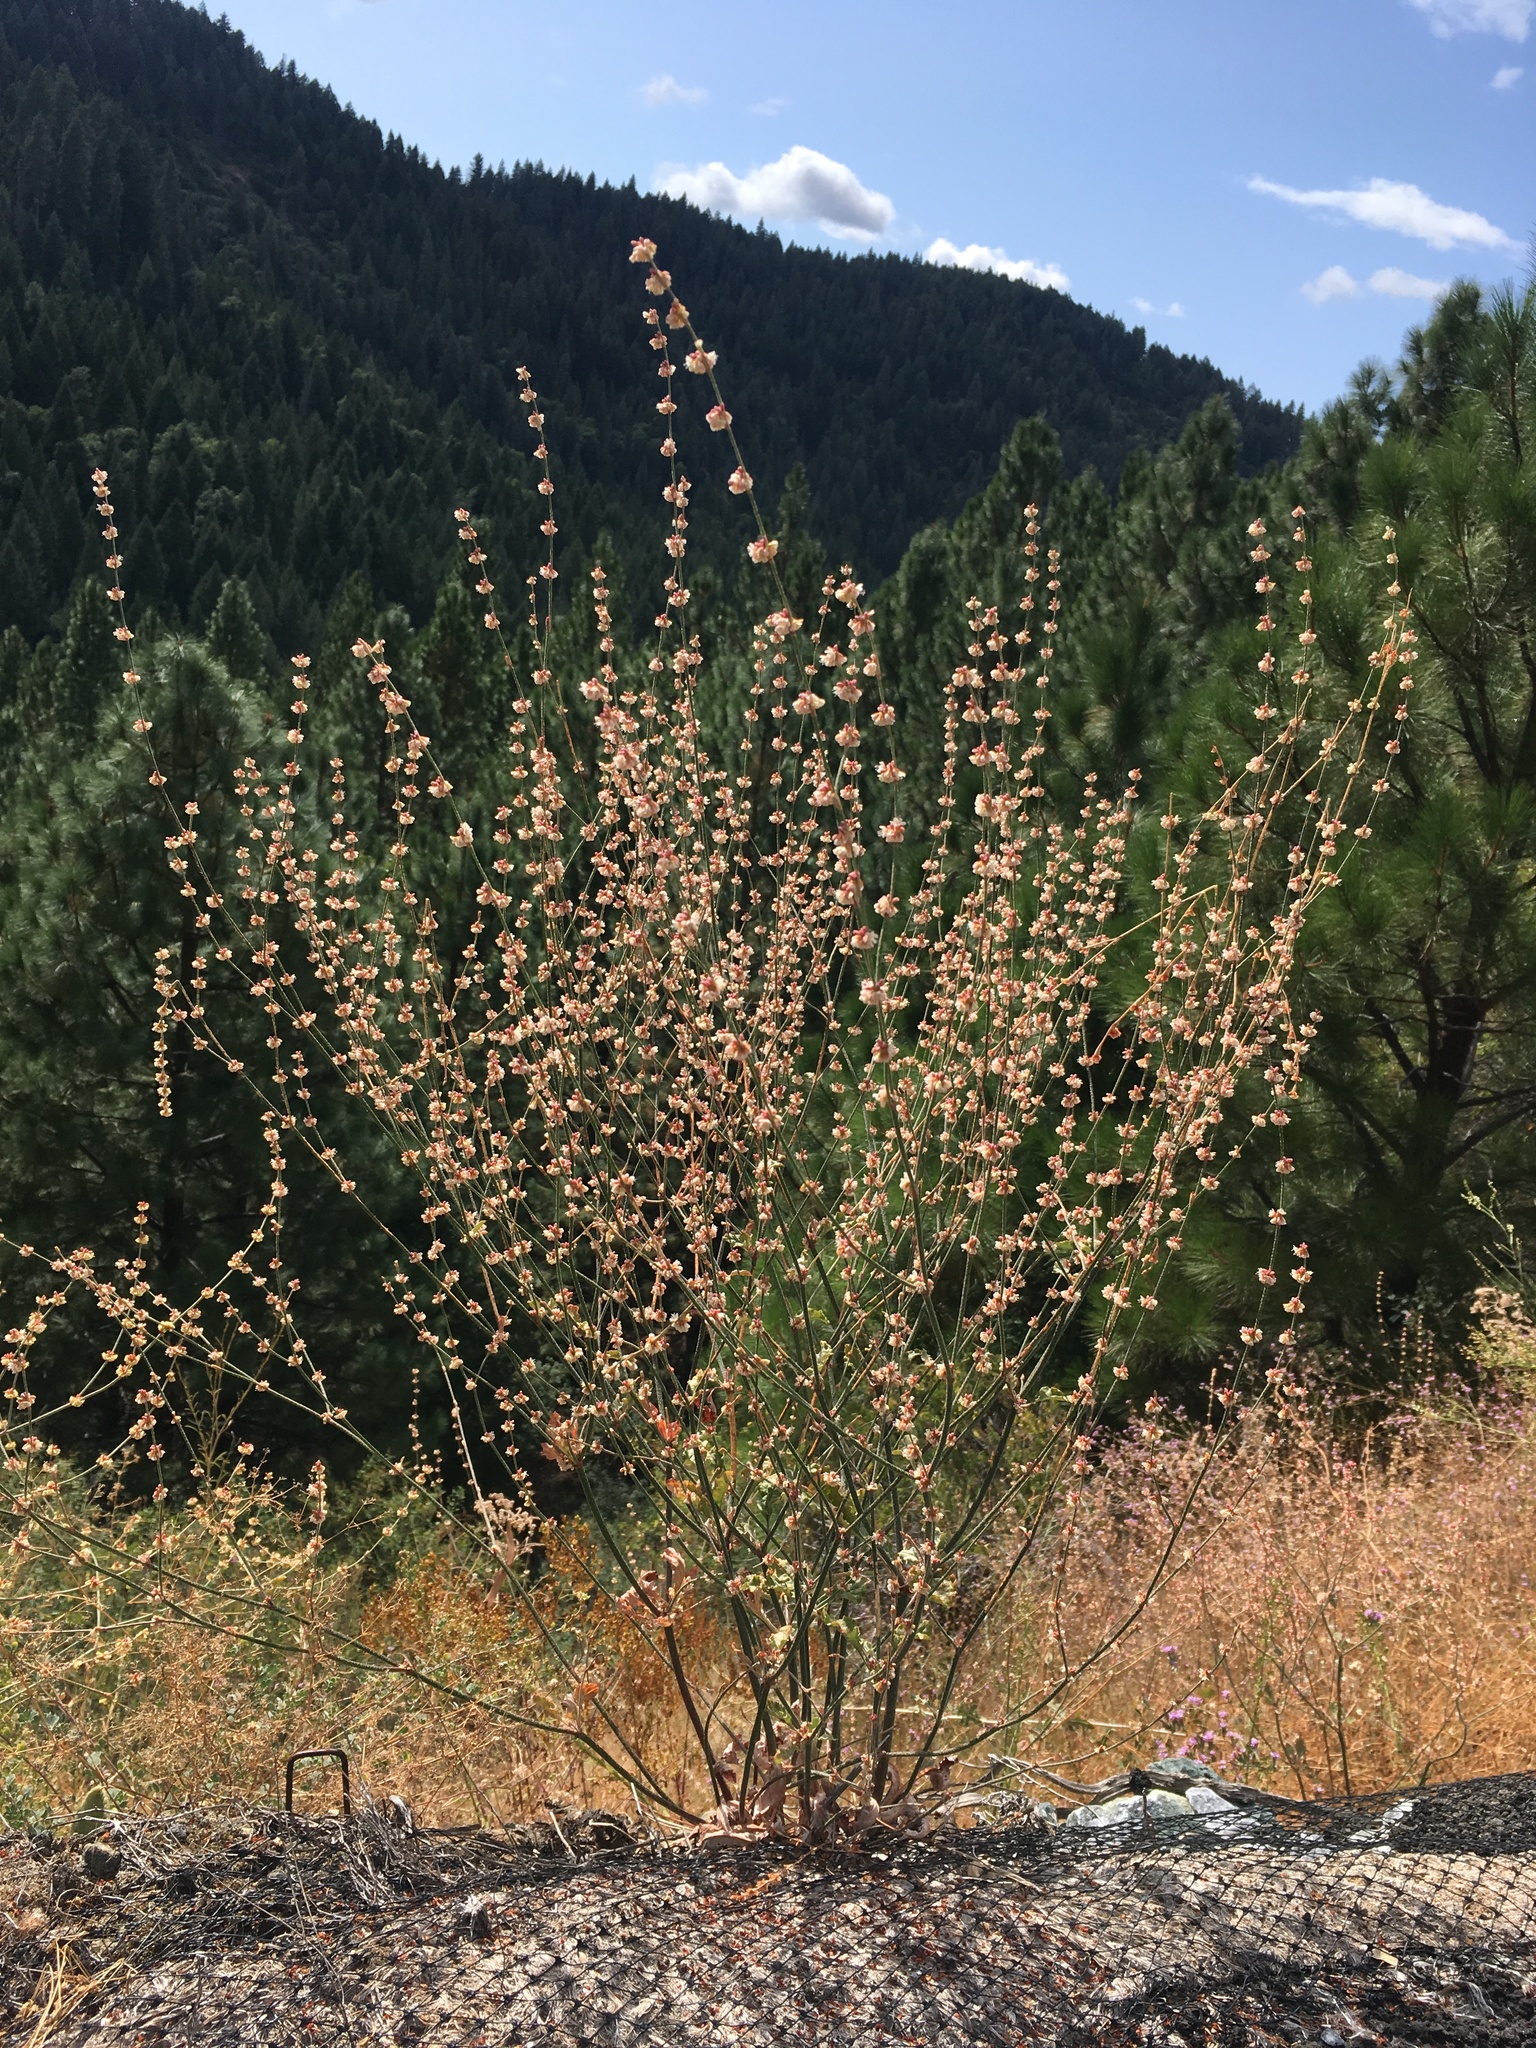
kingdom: Plantae
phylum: Tracheophyta
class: Magnoliopsida
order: Caryophyllales
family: Polygonaceae
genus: Eriogonum
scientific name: Eriogonum roseum
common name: Wand wild buckwheat
